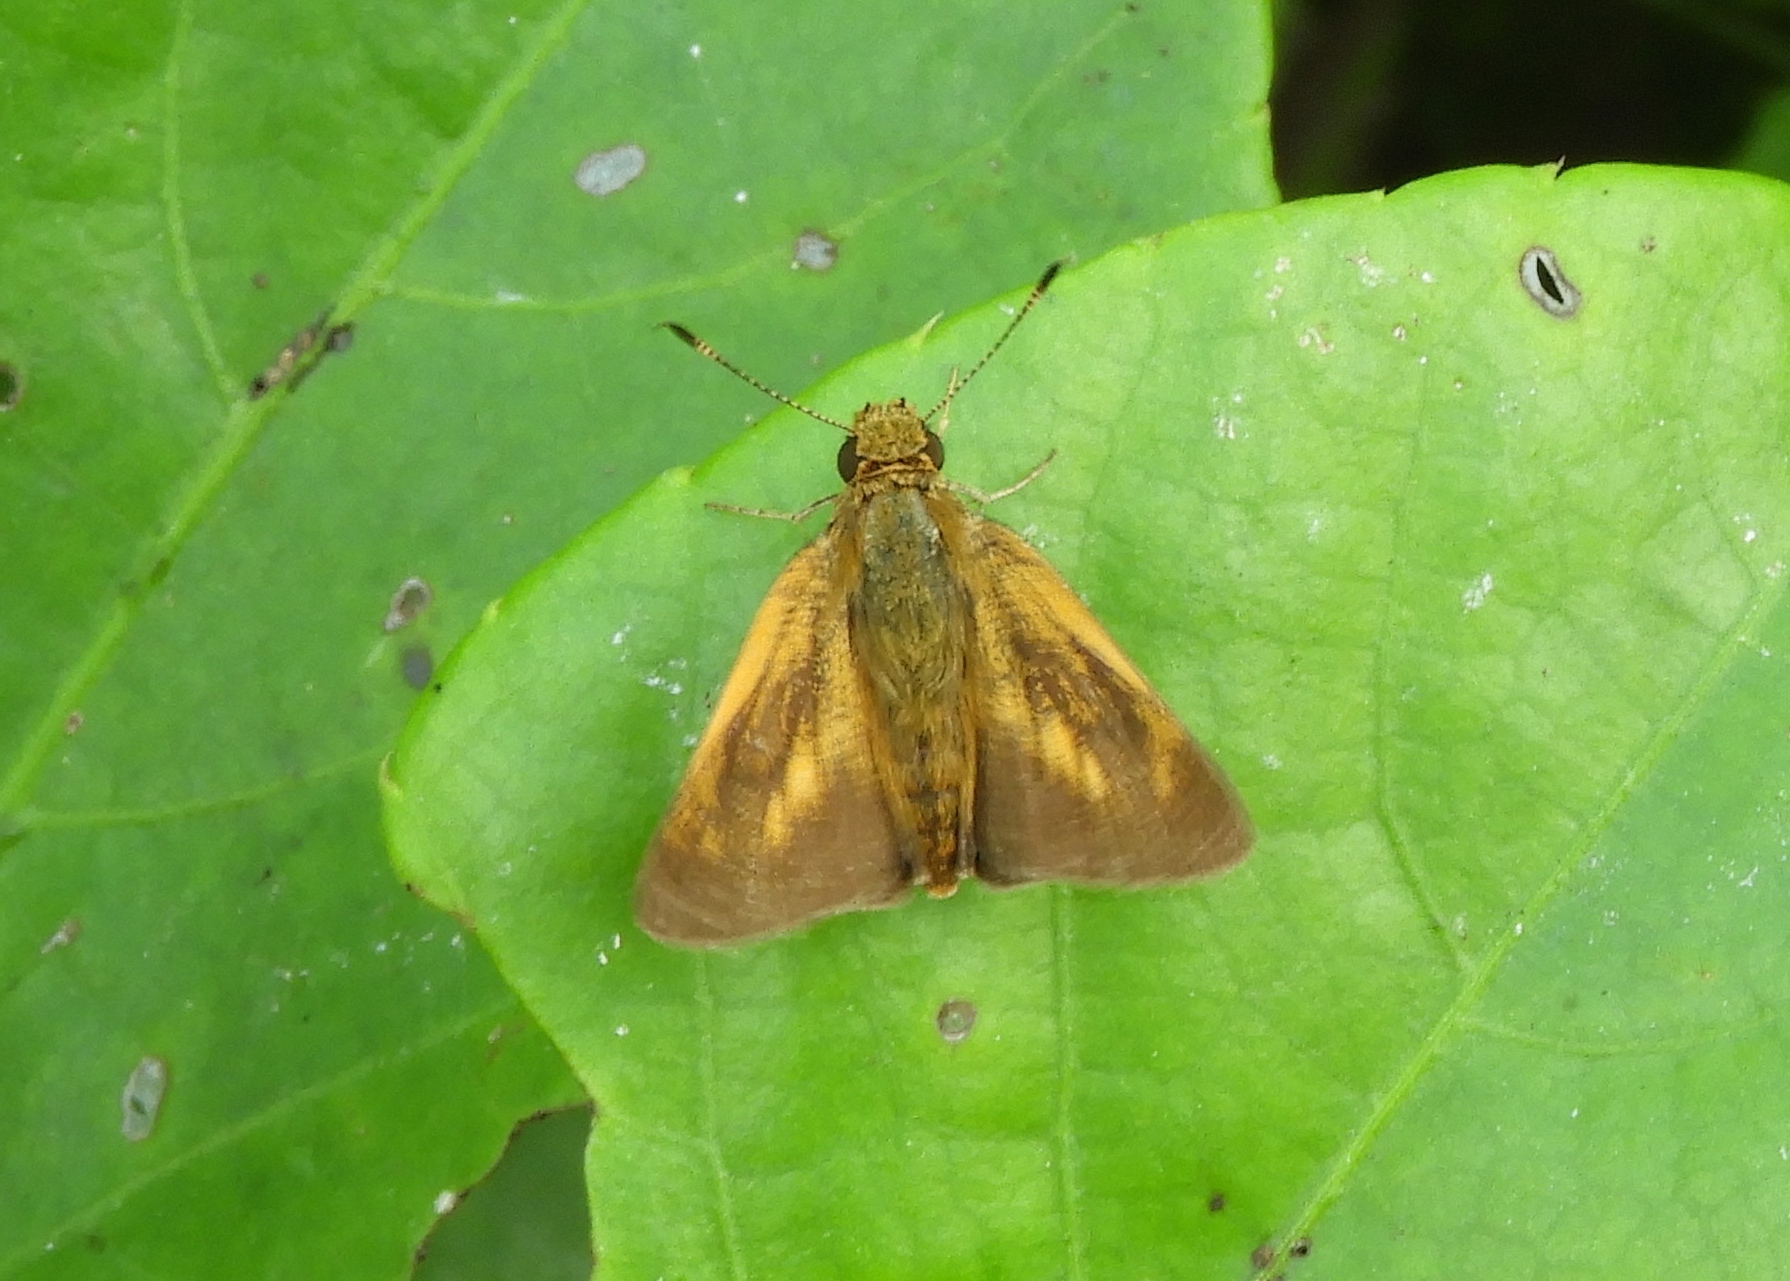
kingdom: Animalia
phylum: Arthropoda
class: Insecta
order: Lepidoptera
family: Hesperiidae
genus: Corticea
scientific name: Corticea corticea
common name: Redundant skipper
